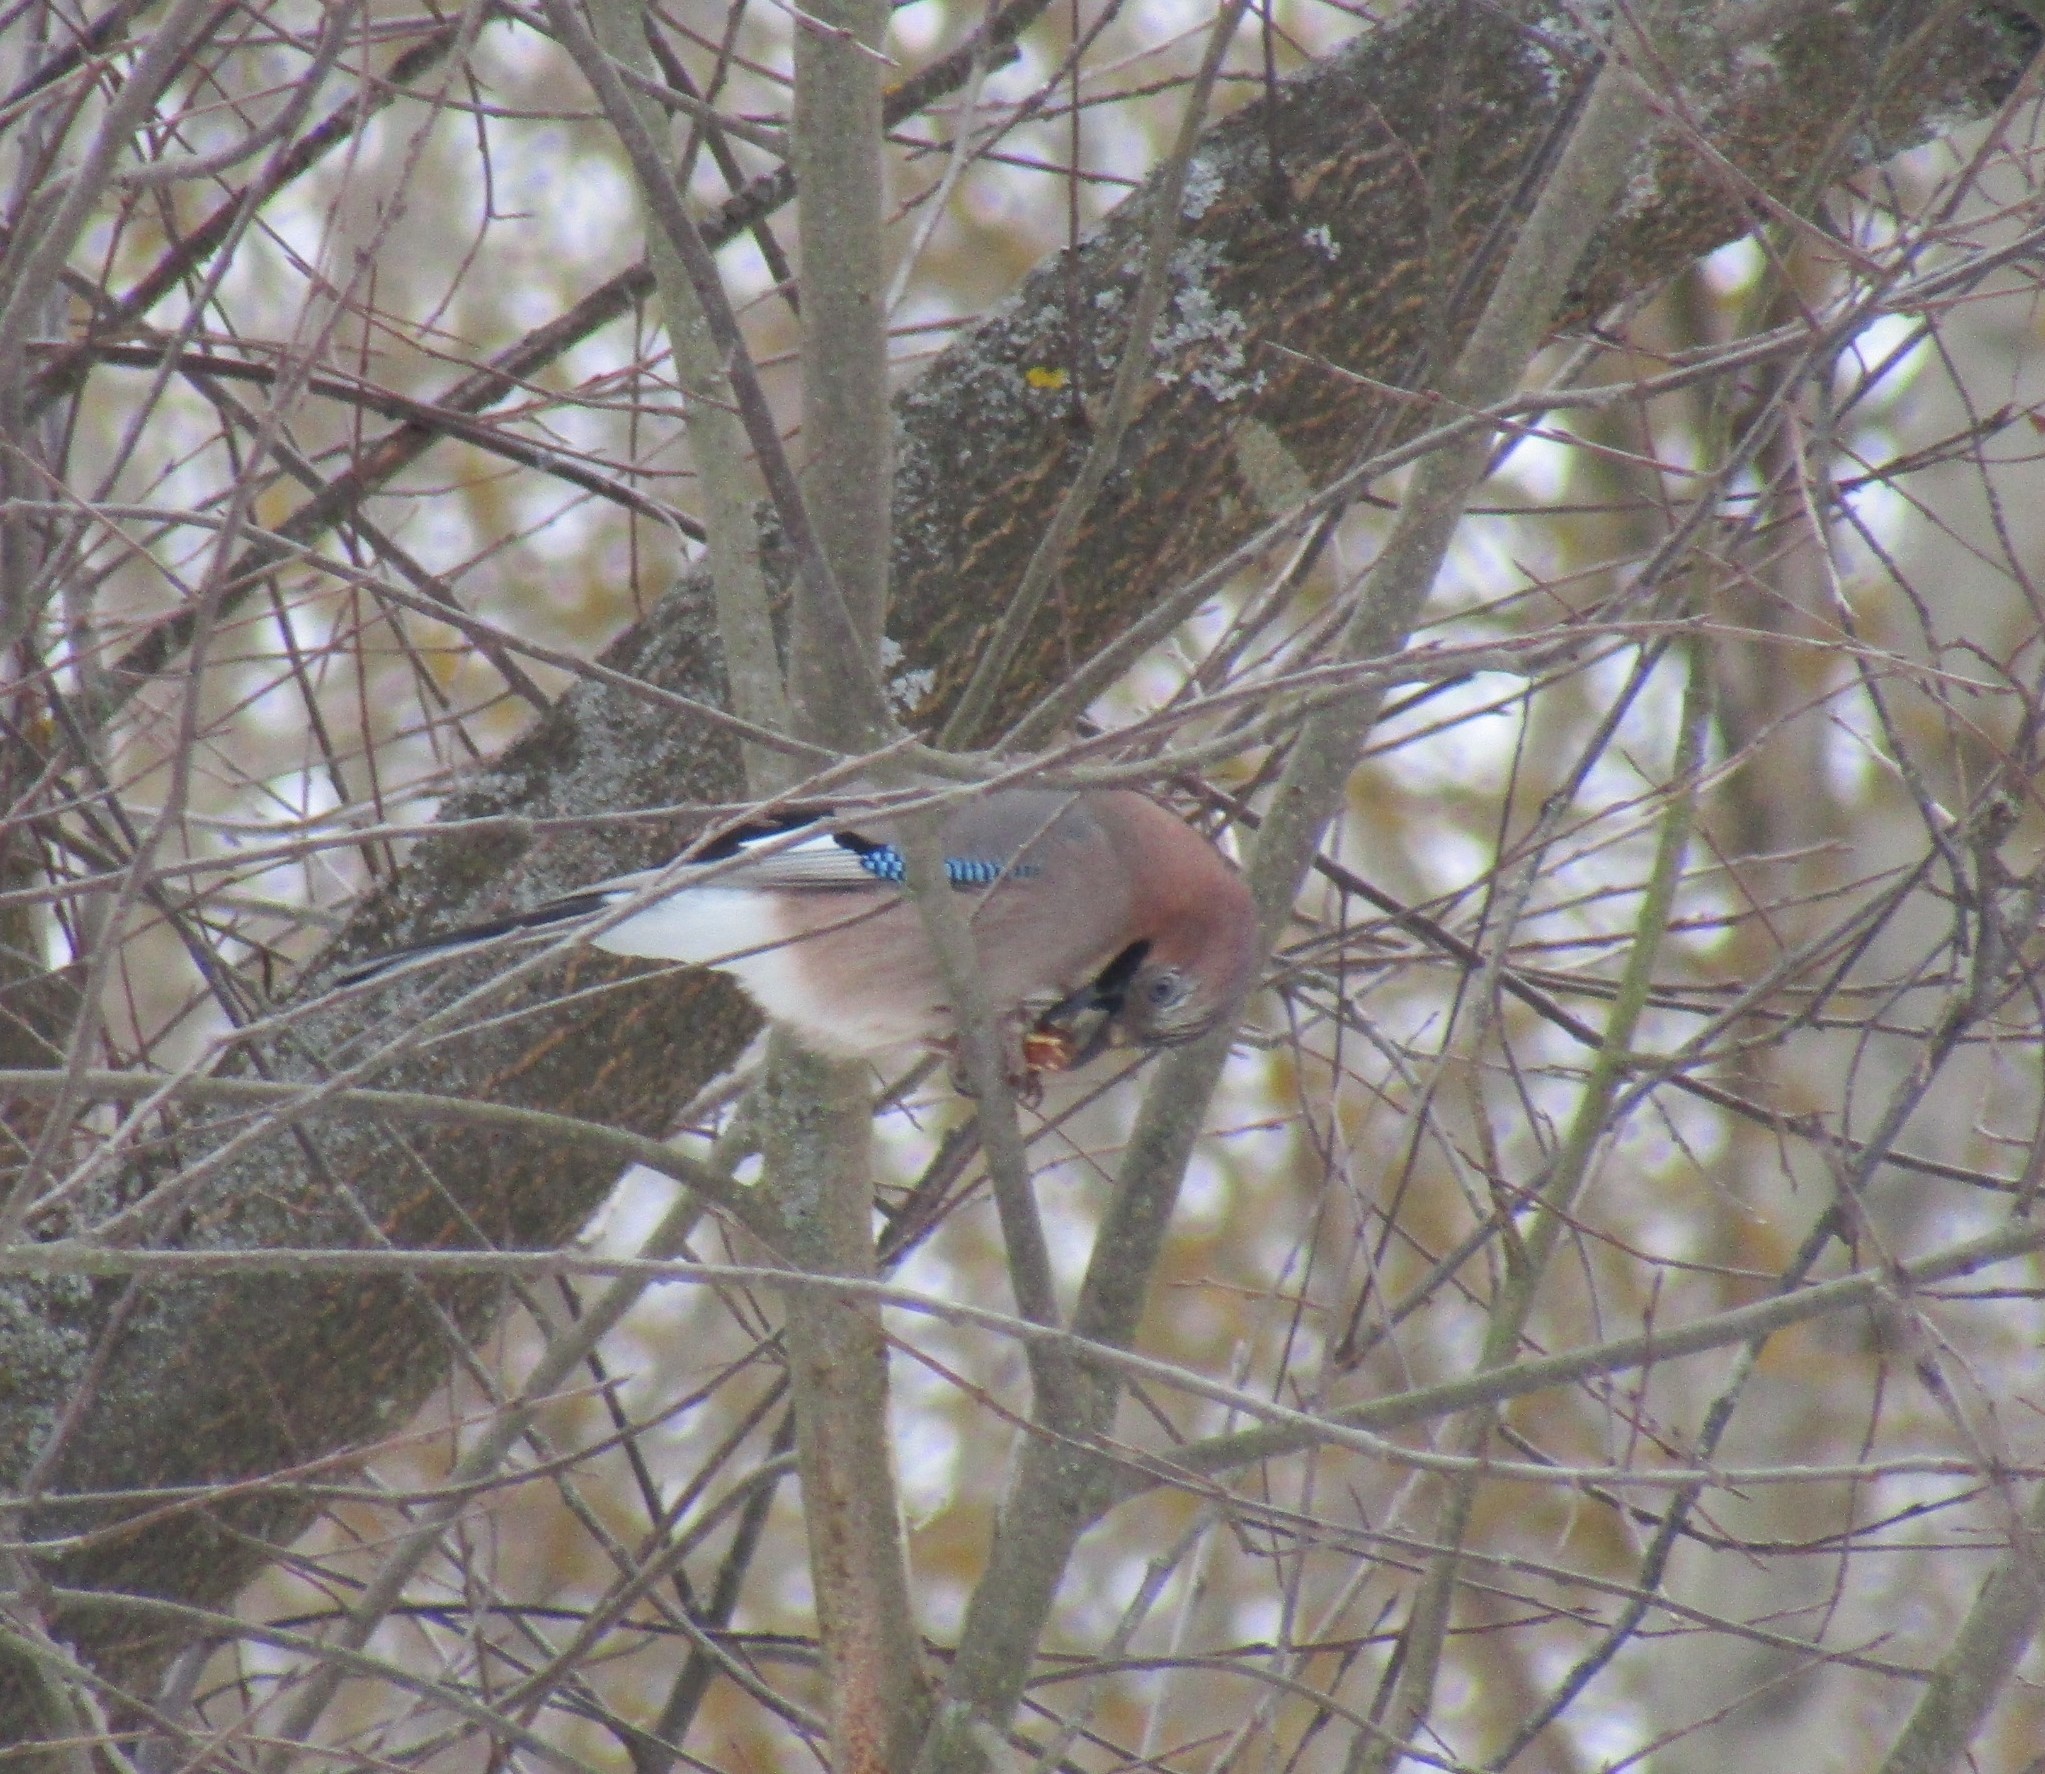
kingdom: Animalia
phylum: Chordata
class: Aves
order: Passeriformes
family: Corvidae
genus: Garrulus
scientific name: Garrulus glandarius
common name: Eurasian jay
